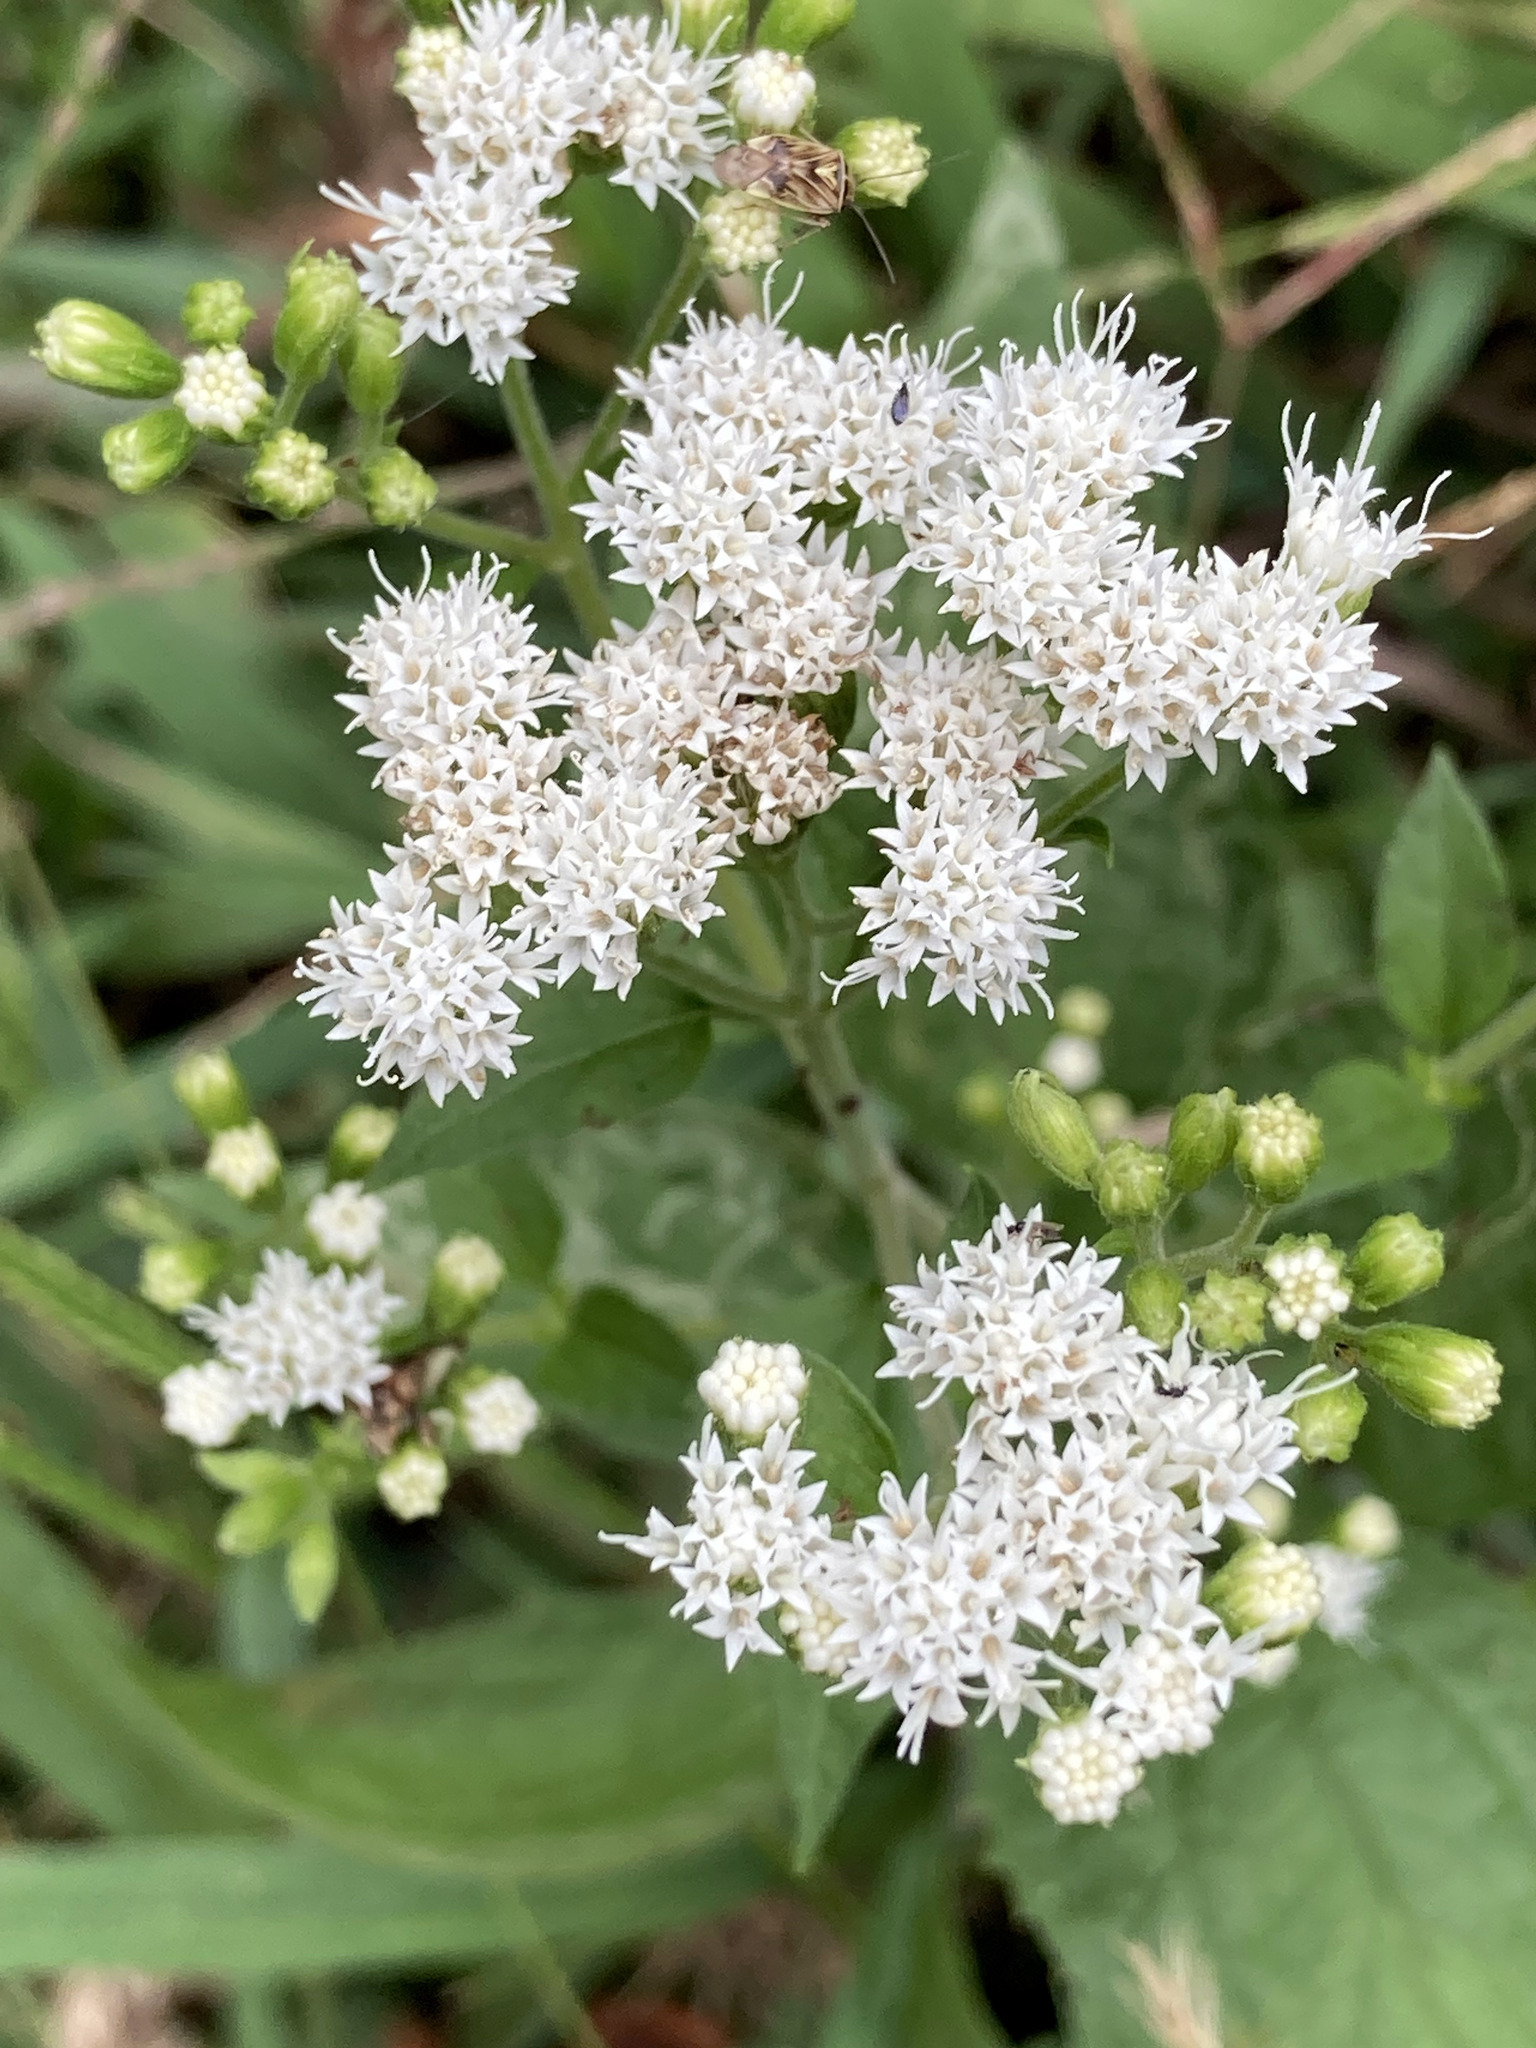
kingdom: Plantae
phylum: Tracheophyta
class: Magnoliopsida
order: Asterales
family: Asteraceae
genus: Ageratina
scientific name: Ageratina altissima
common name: White snakeroot
